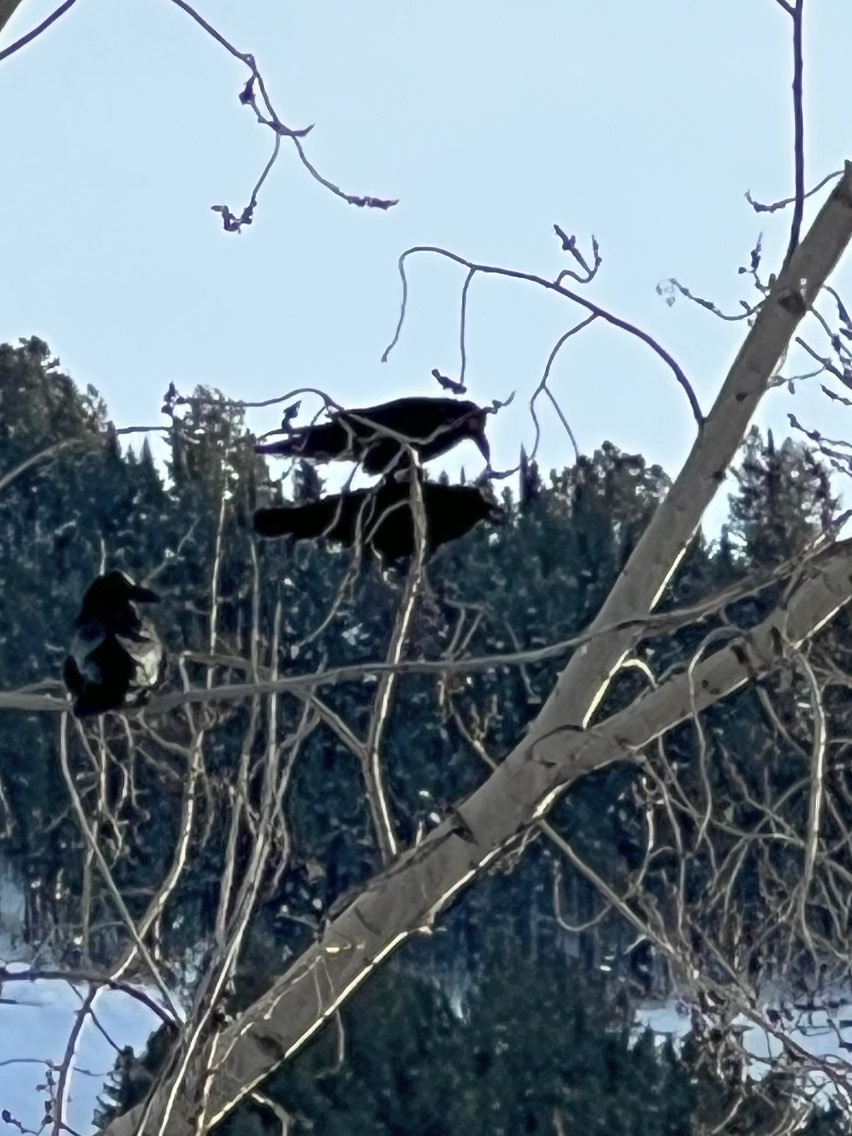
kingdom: Animalia
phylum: Chordata
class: Aves
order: Passeriformes
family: Corvidae
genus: Corvus
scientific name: Corvus corax
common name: Common raven
